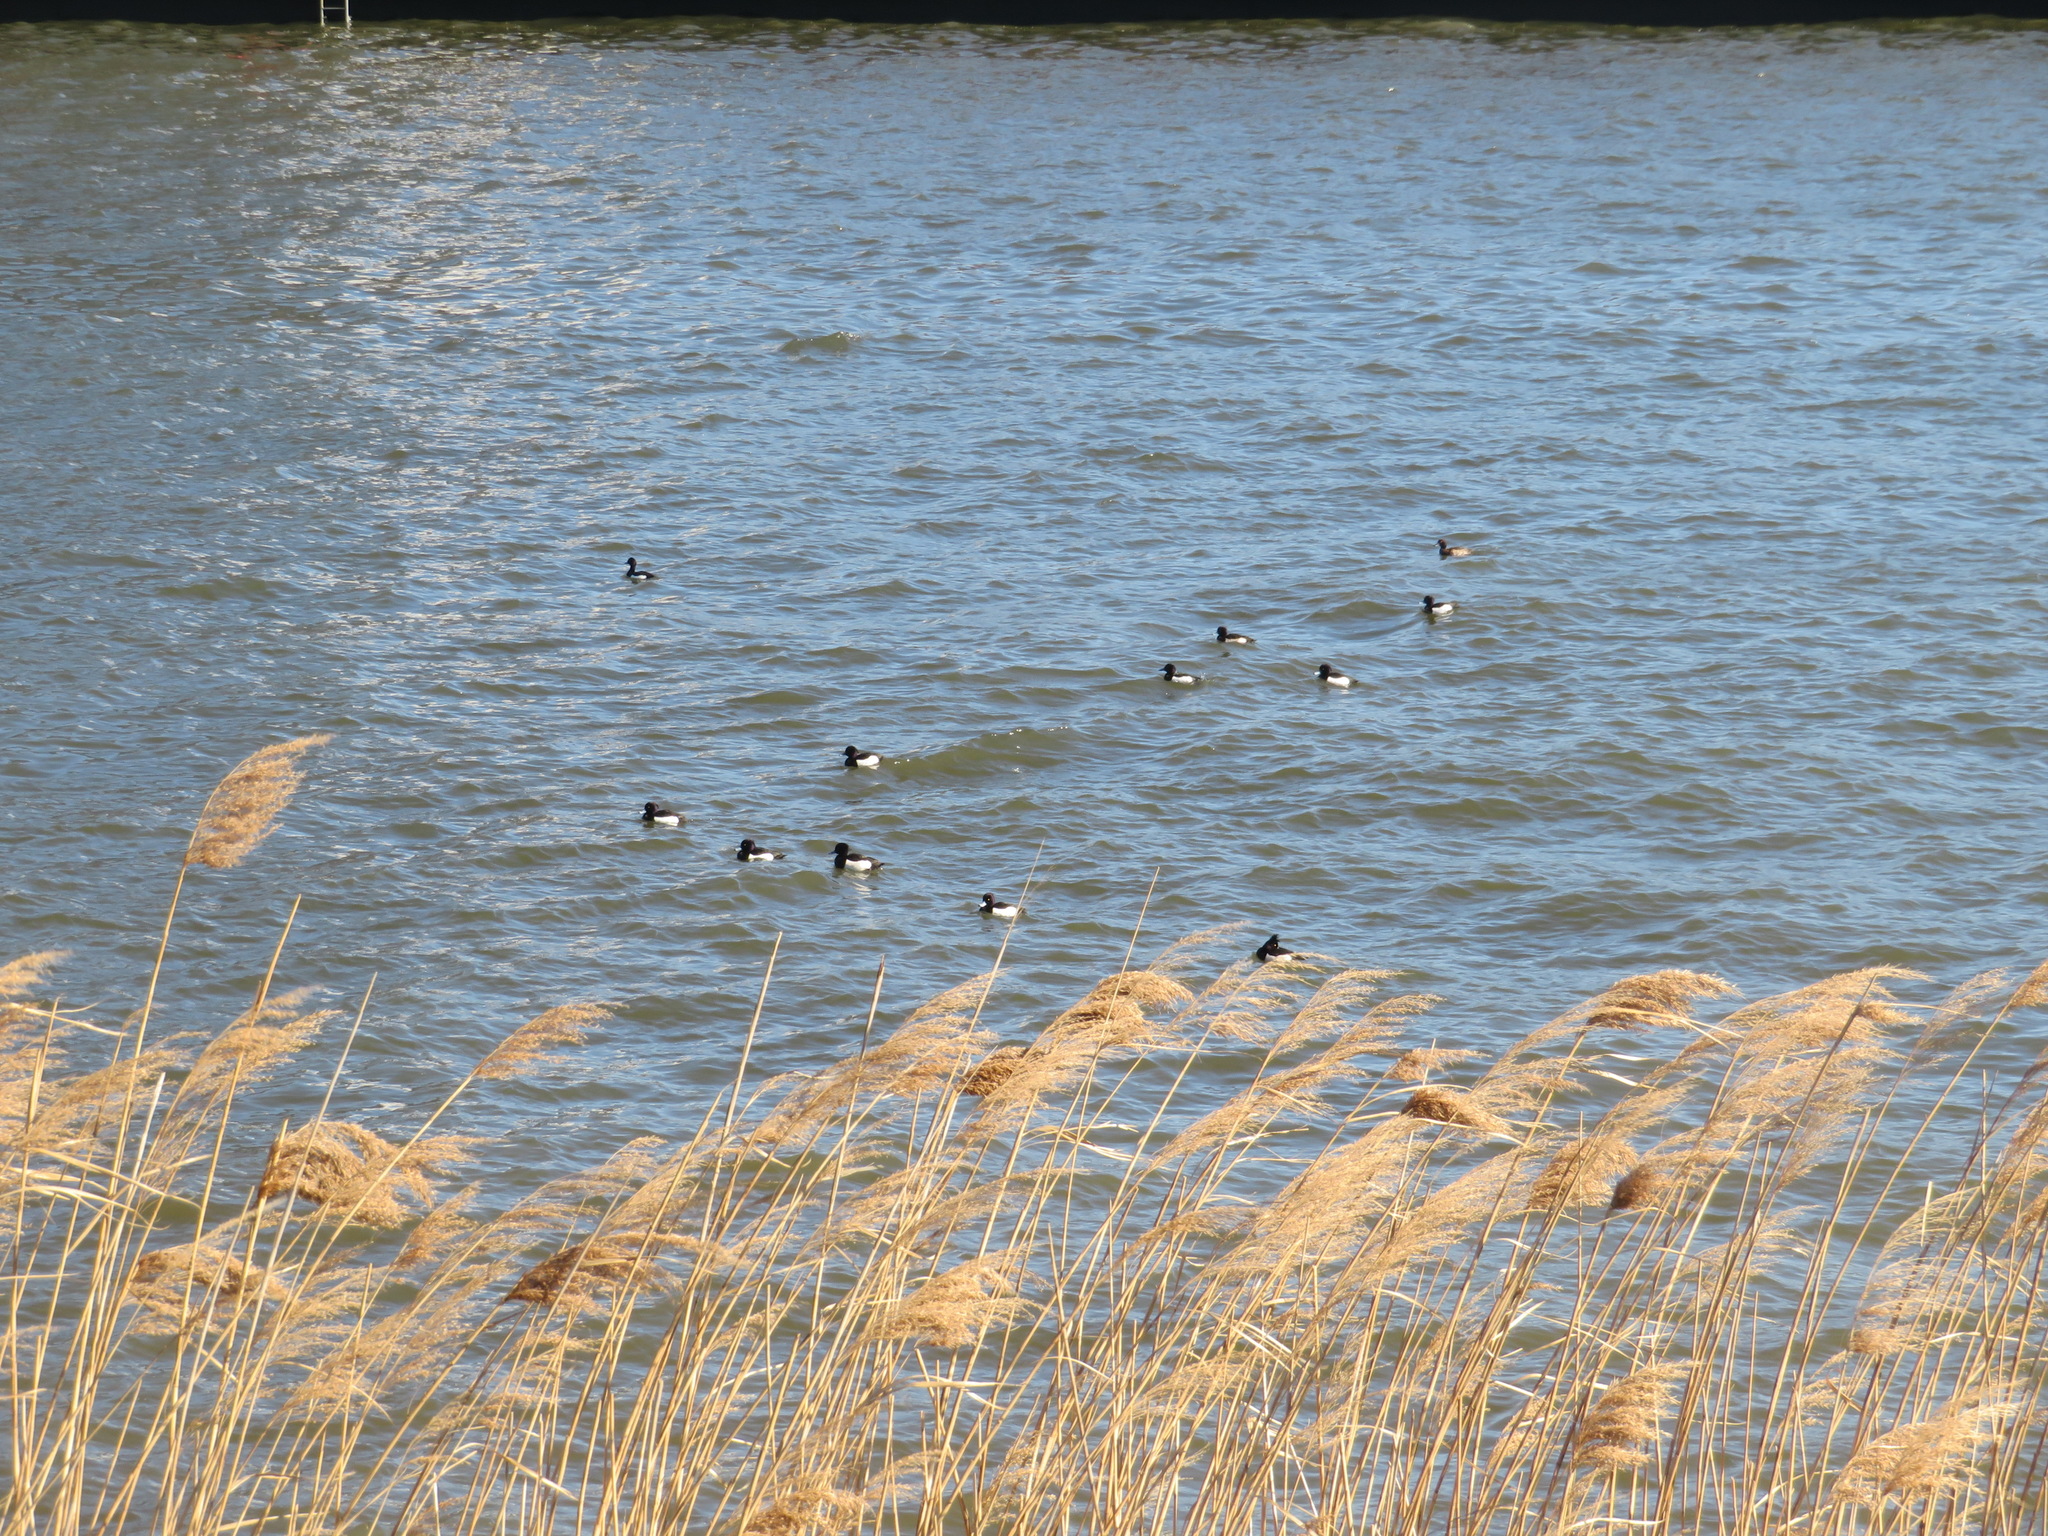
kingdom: Animalia
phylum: Chordata
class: Aves
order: Anseriformes
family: Anatidae
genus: Aythya
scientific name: Aythya fuligula
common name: Tufted duck
